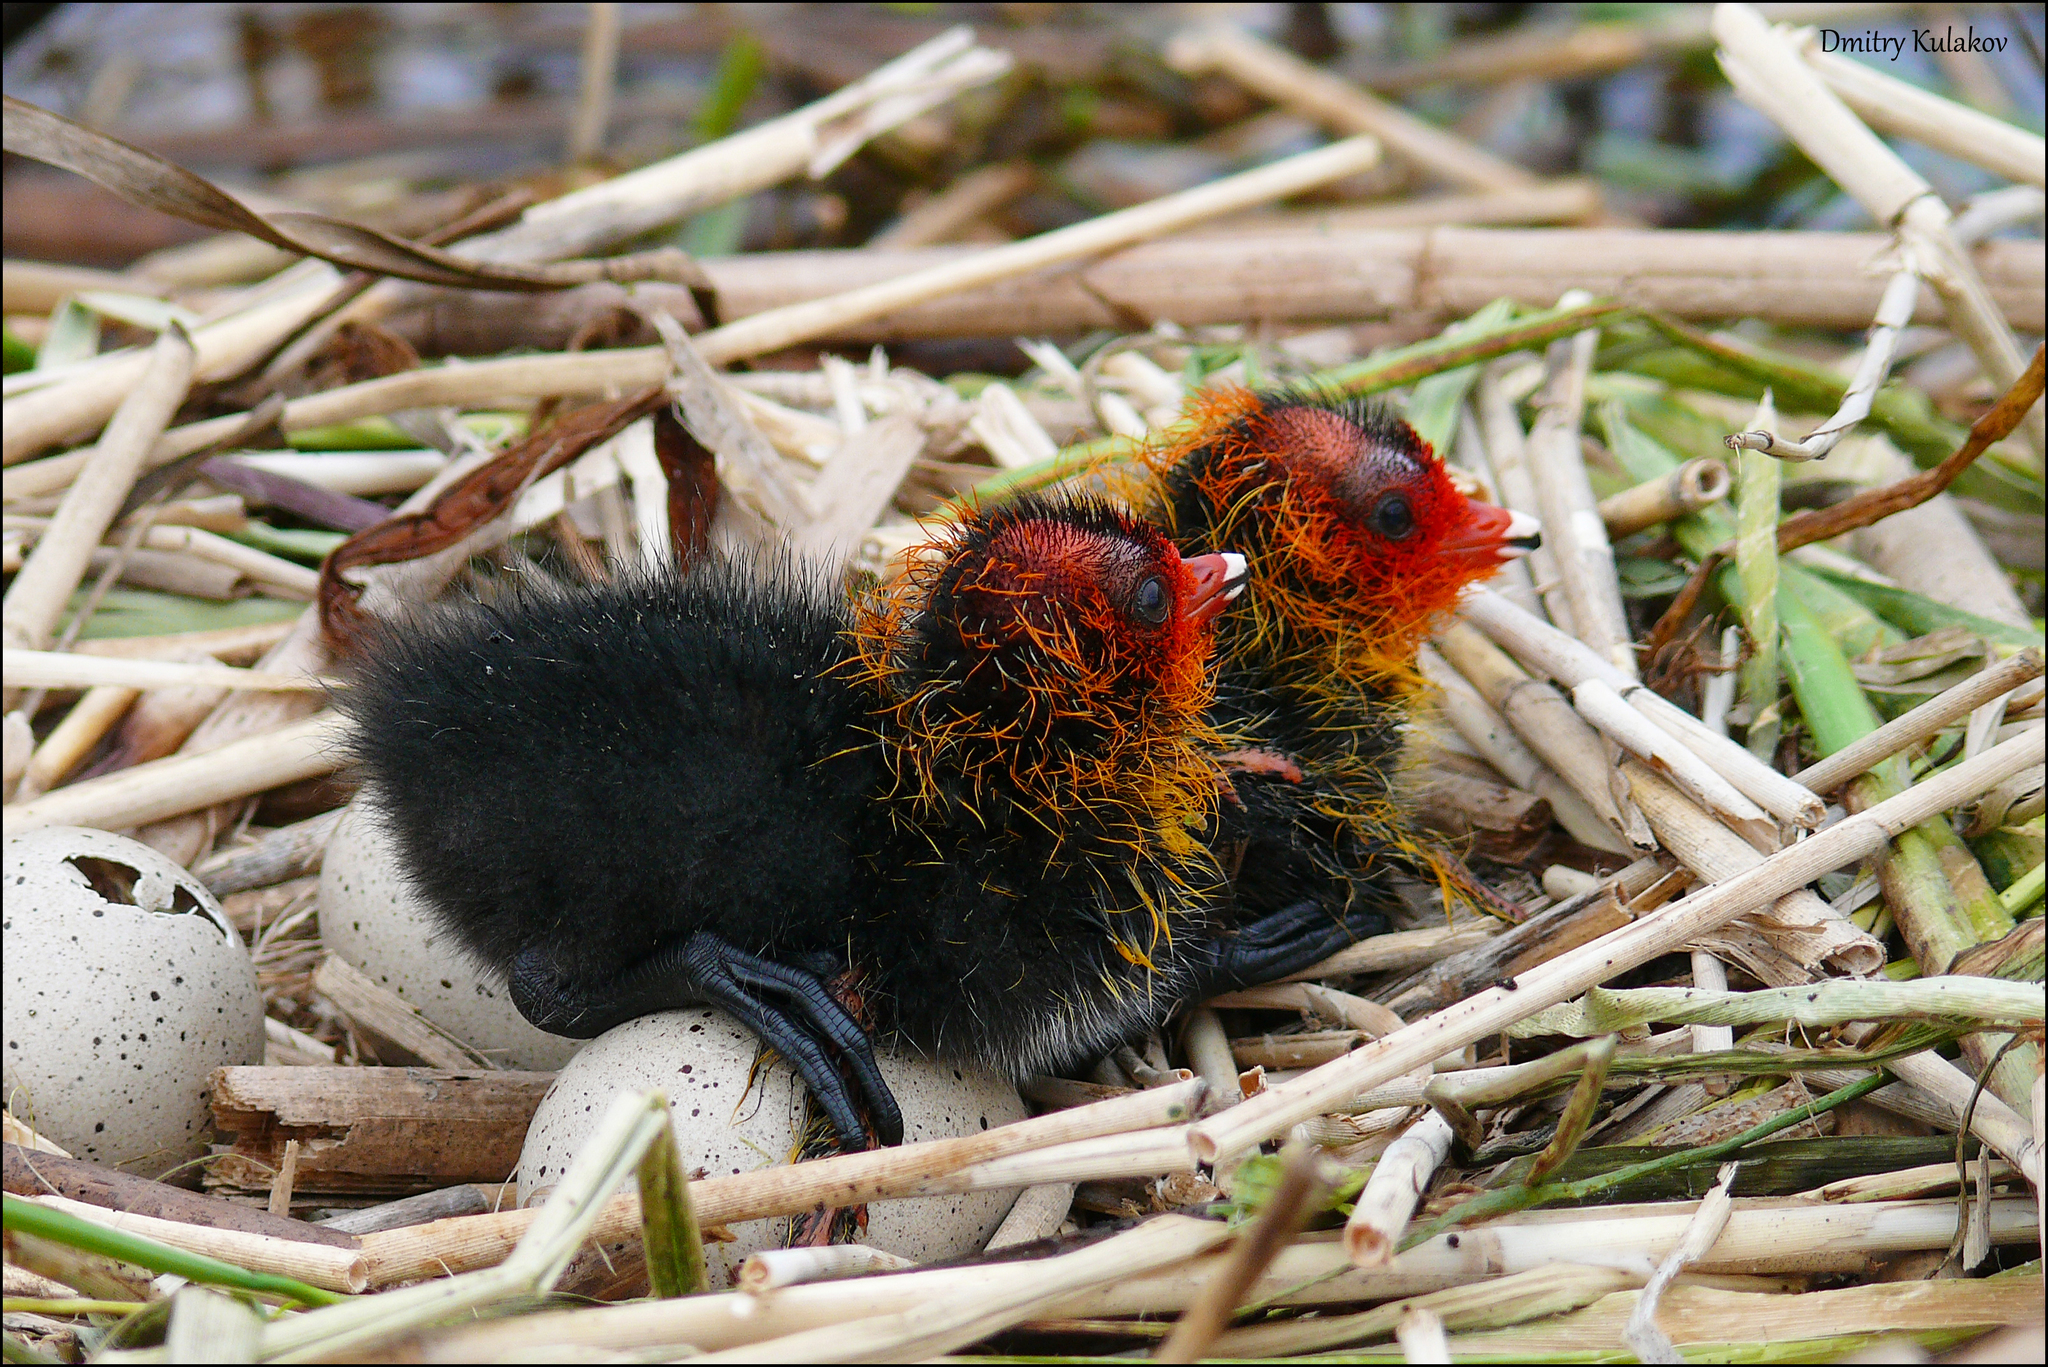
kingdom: Animalia
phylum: Chordata
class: Aves
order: Gruiformes
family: Rallidae
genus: Fulica
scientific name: Fulica atra
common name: Eurasian coot
